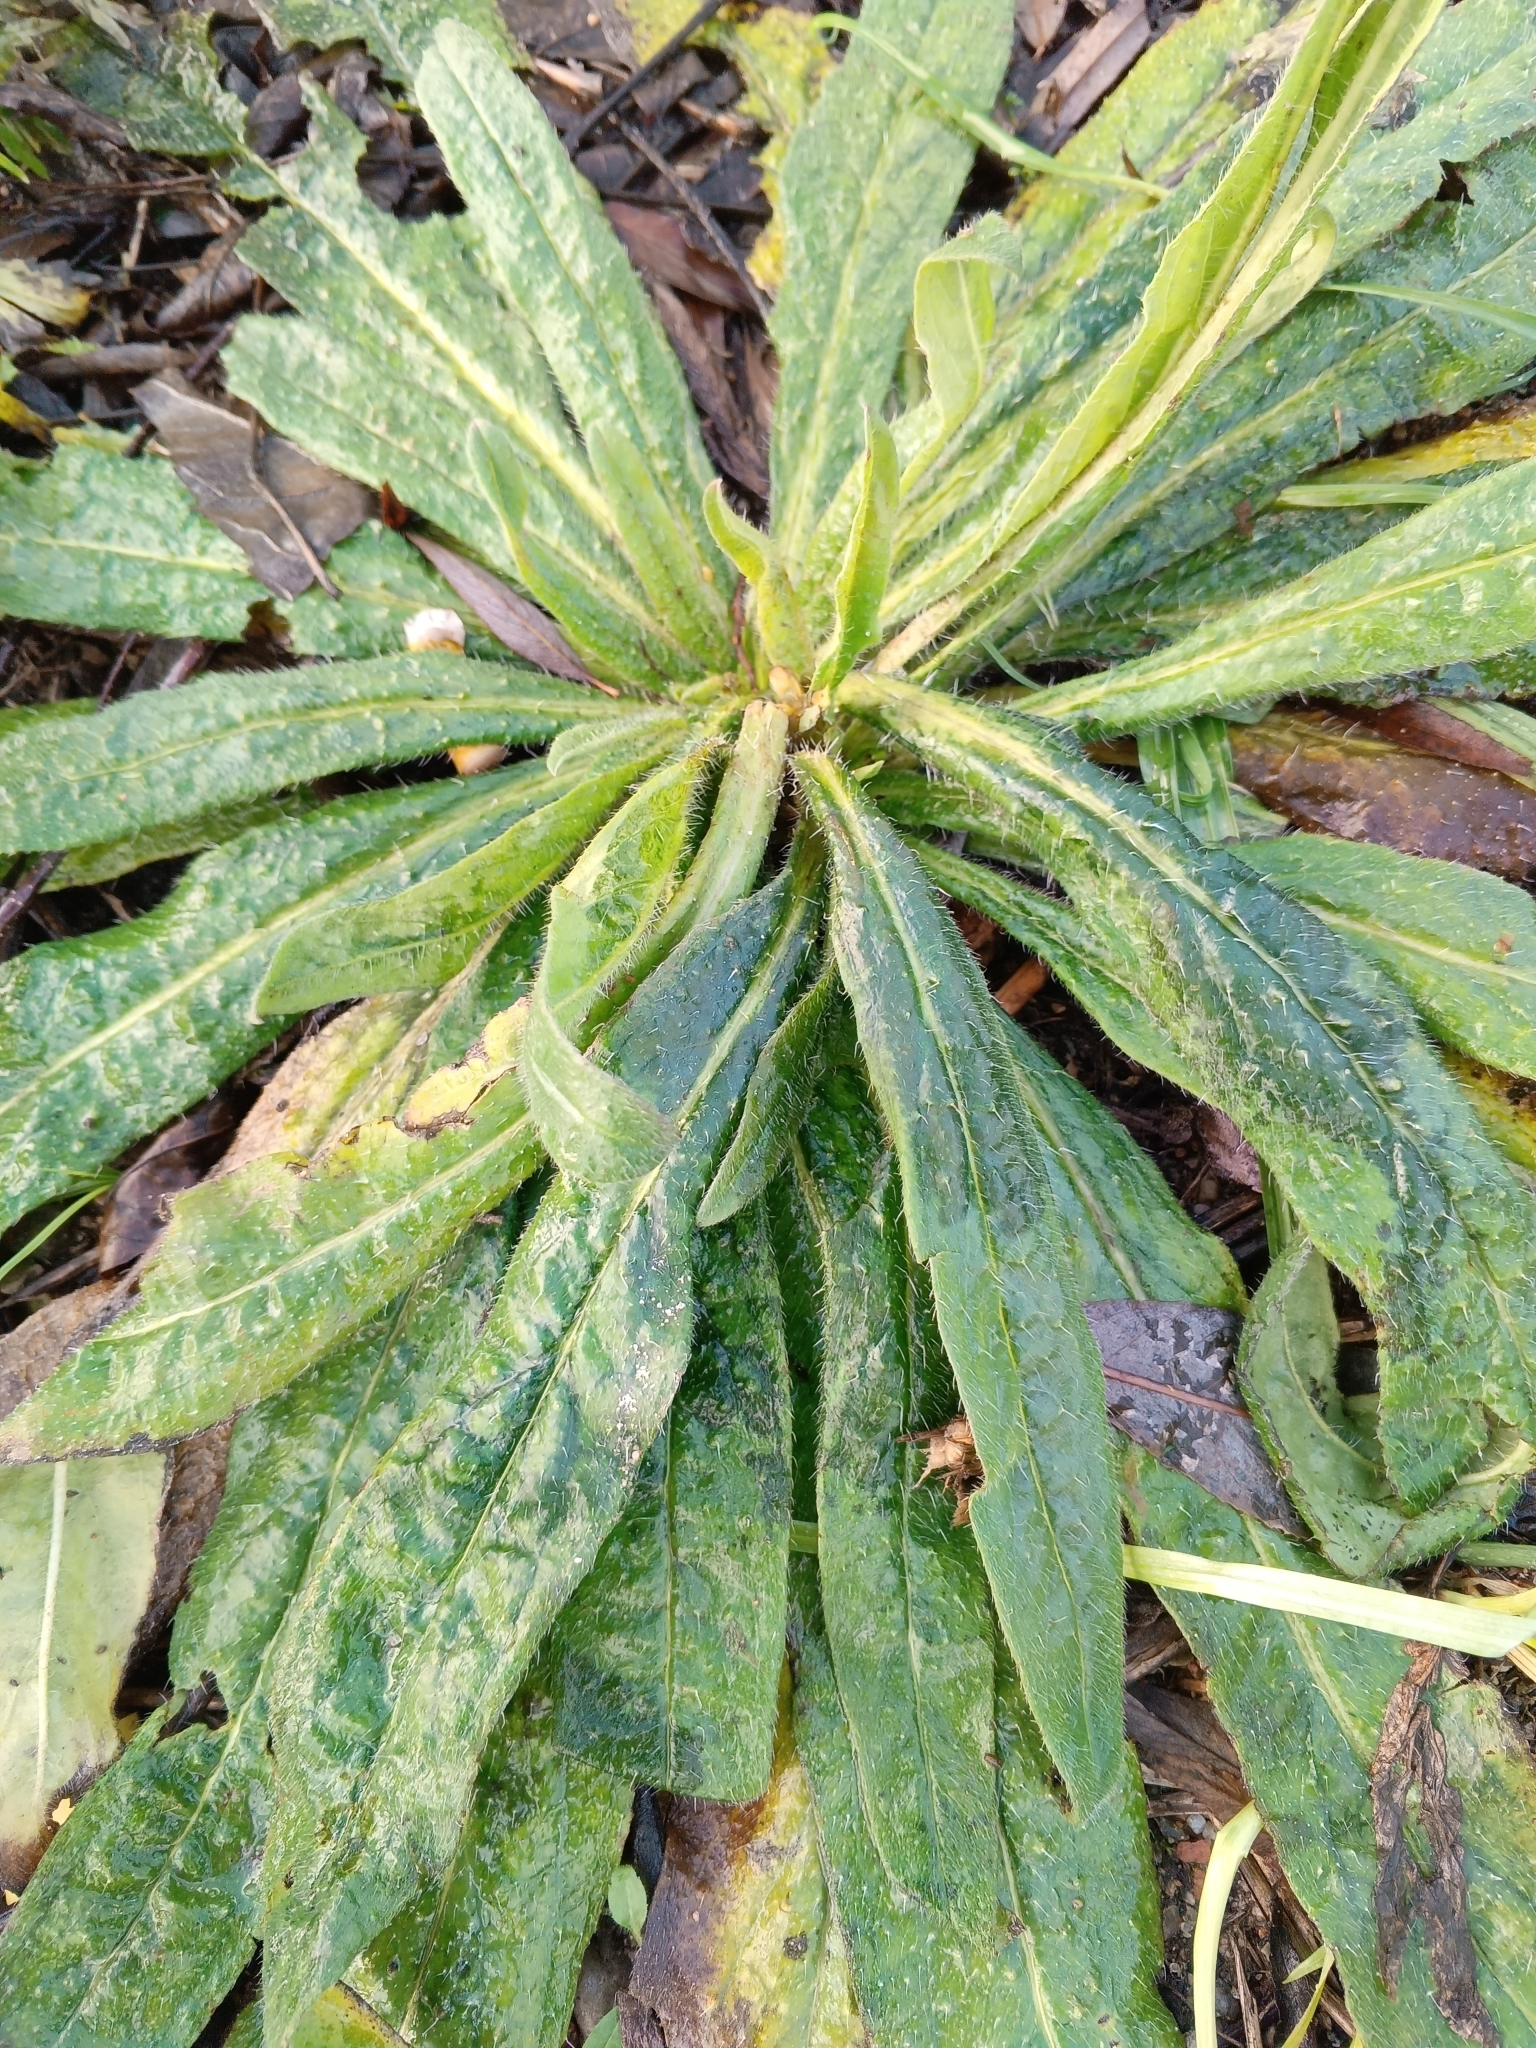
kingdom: Plantae
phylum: Tracheophyta
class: Magnoliopsida
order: Boraginales
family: Boraginaceae
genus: Echium
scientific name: Echium vulgare
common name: Common viper's bugloss
